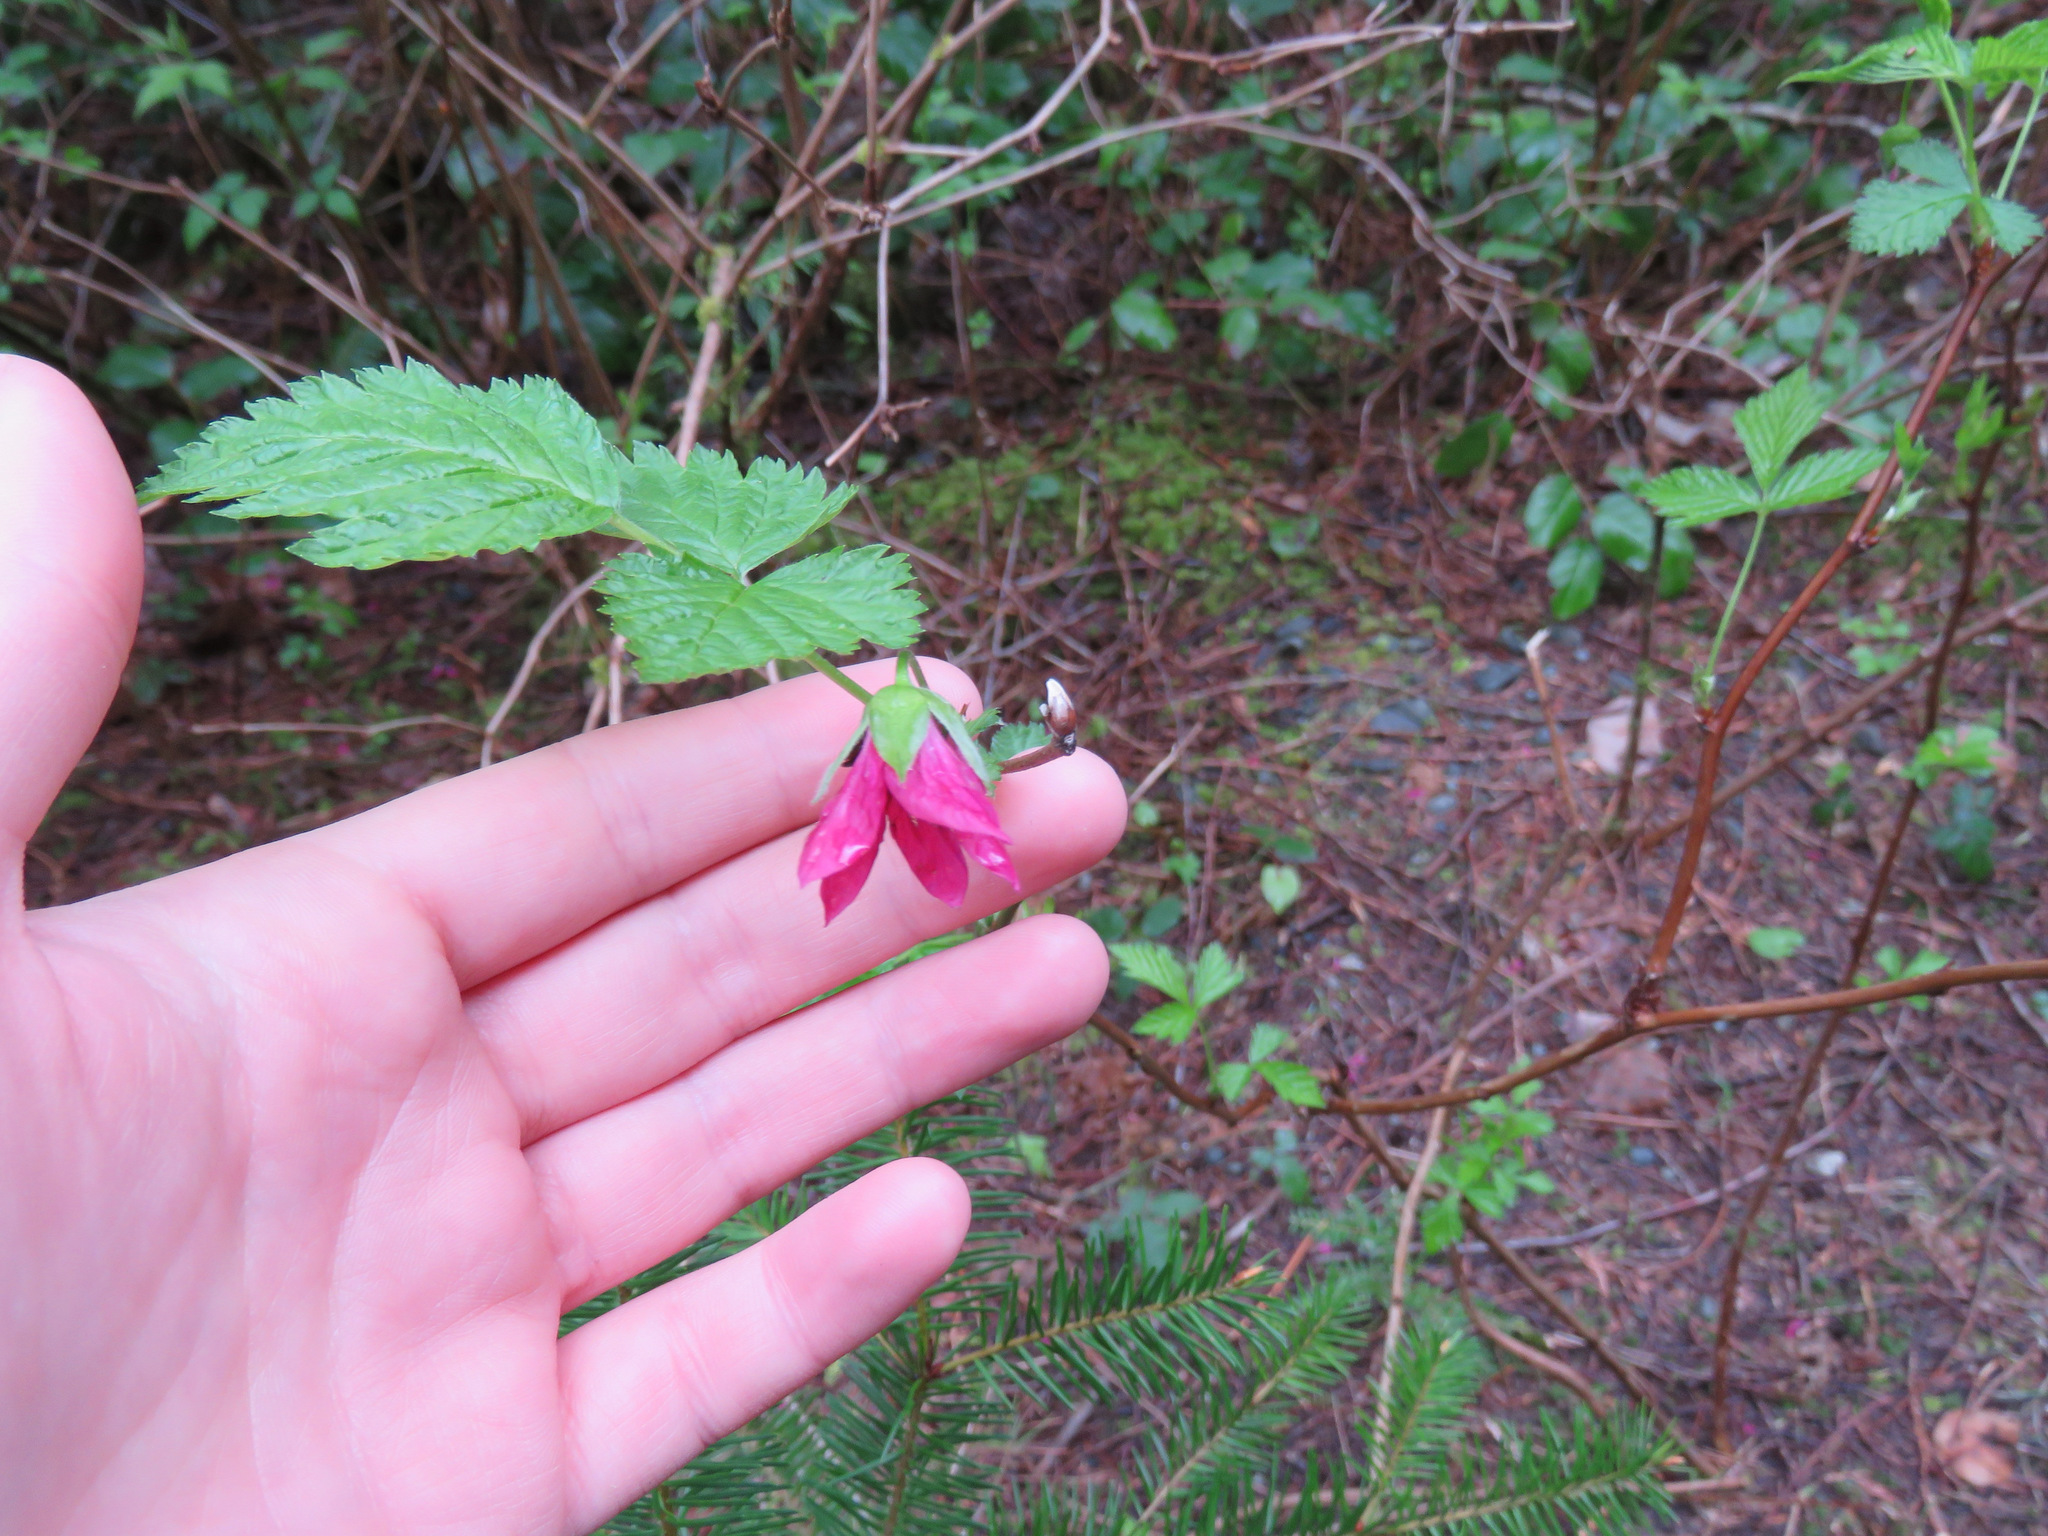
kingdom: Plantae
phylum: Tracheophyta
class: Magnoliopsida
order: Rosales
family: Rosaceae
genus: Rubus
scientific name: Rubus spectabilis
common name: Salmonberry
